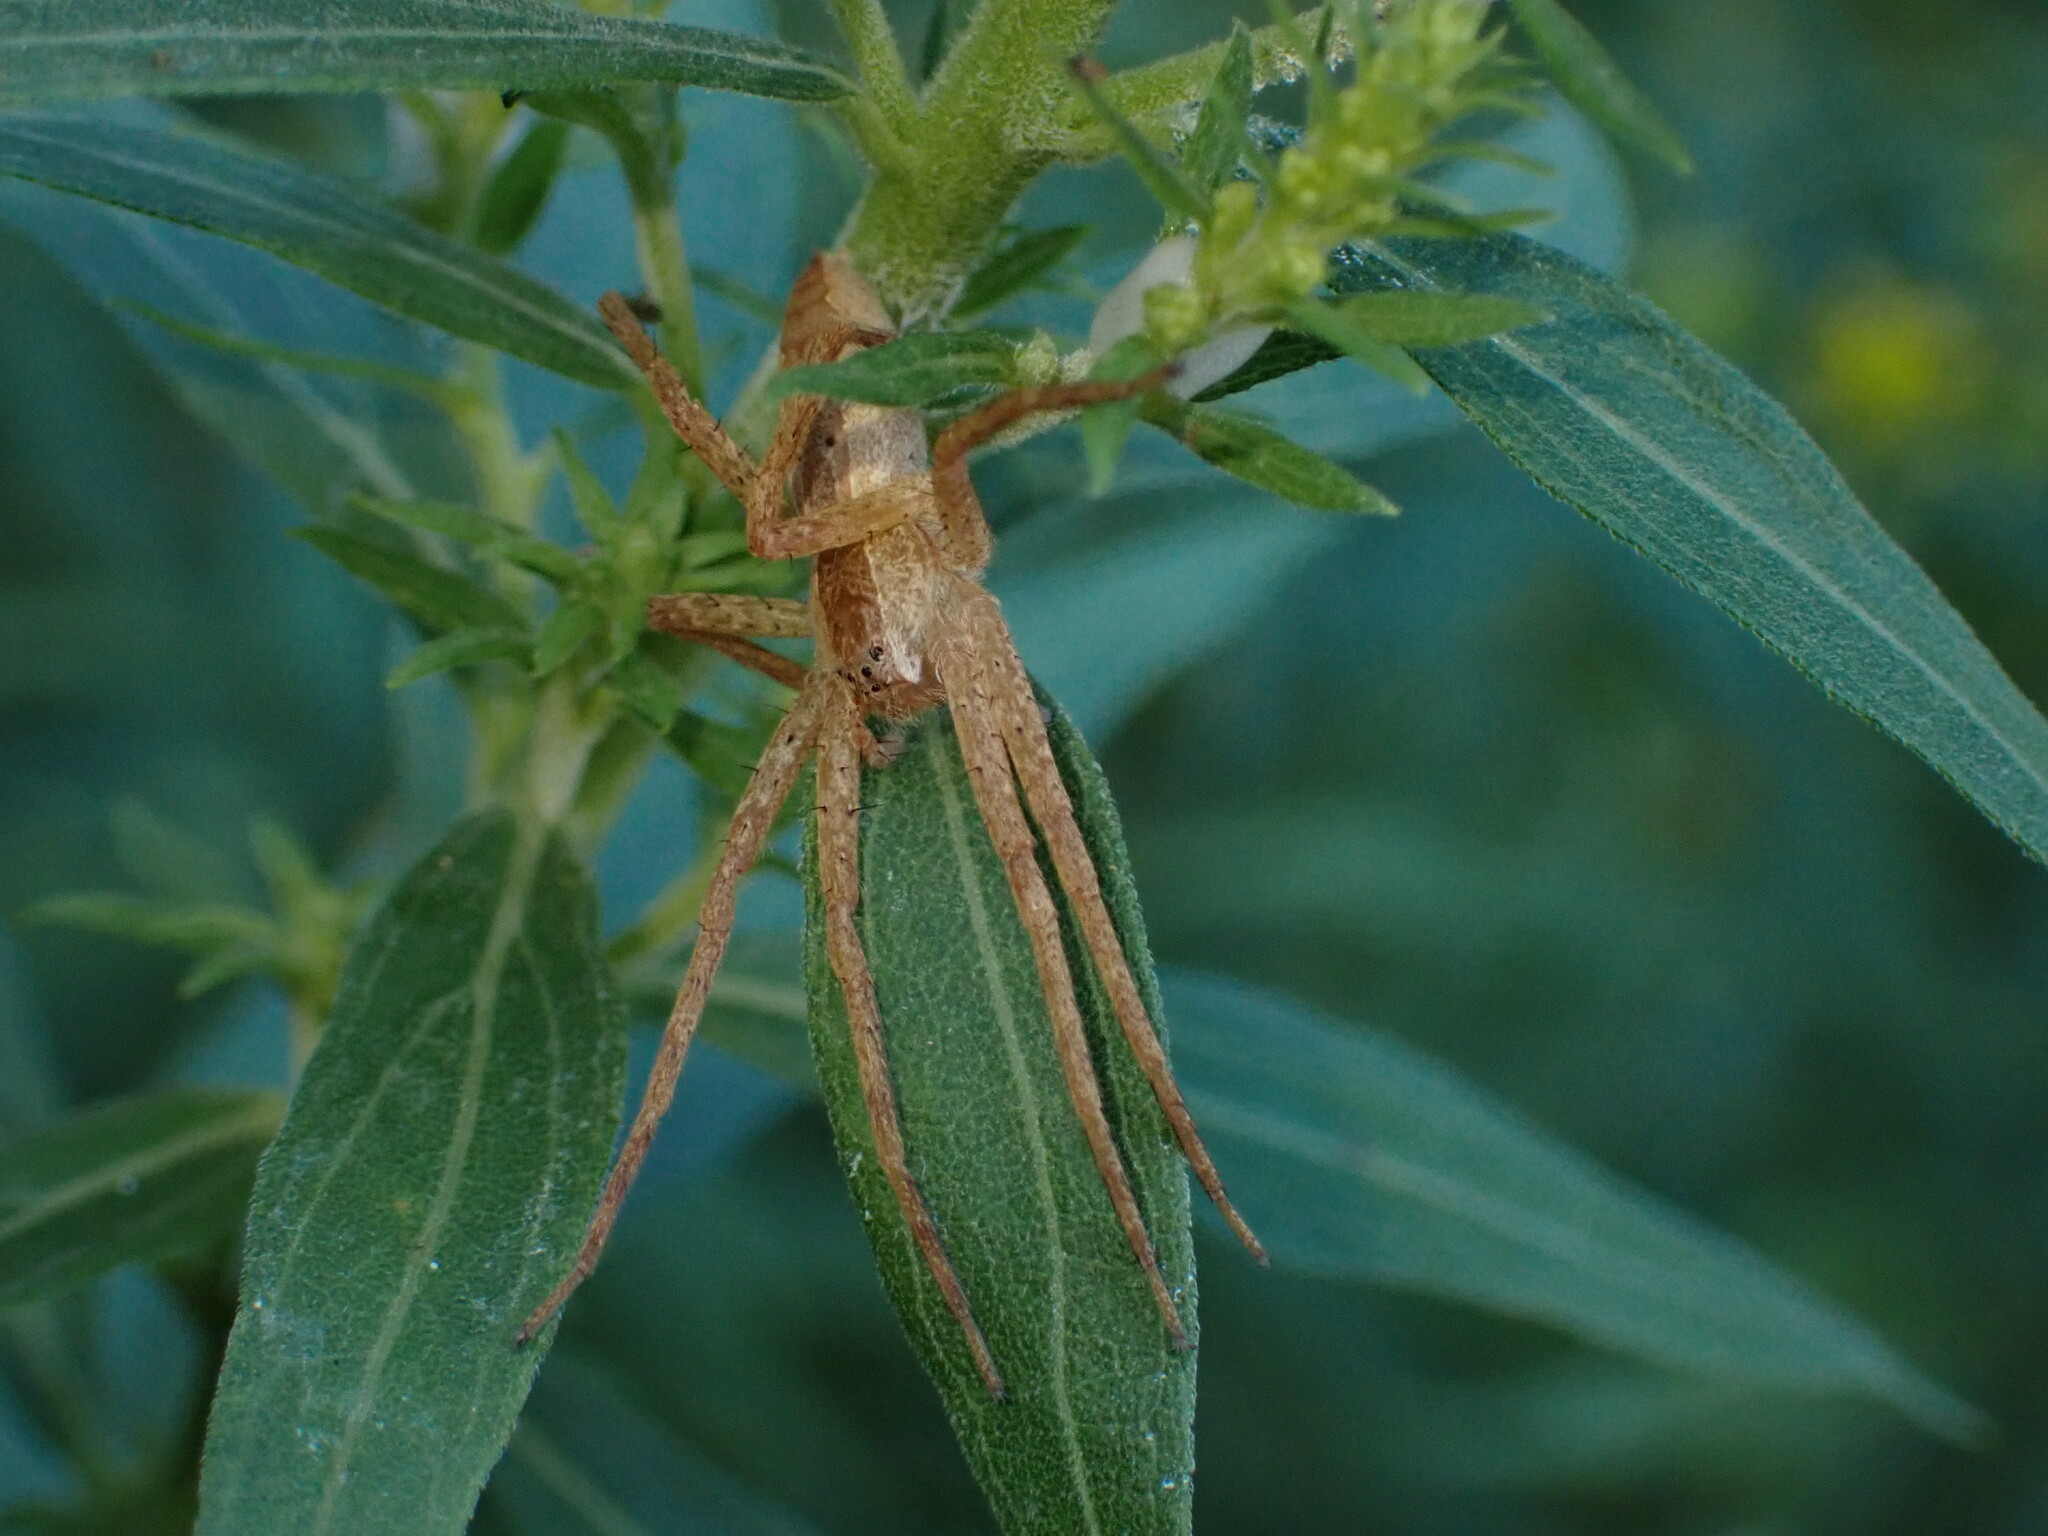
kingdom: Animalia
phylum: Arthropoda
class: Arachnida
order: Araneae
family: Pisauridae
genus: Pisaurina
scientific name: Pisaurina mira
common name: American nursery web spider
